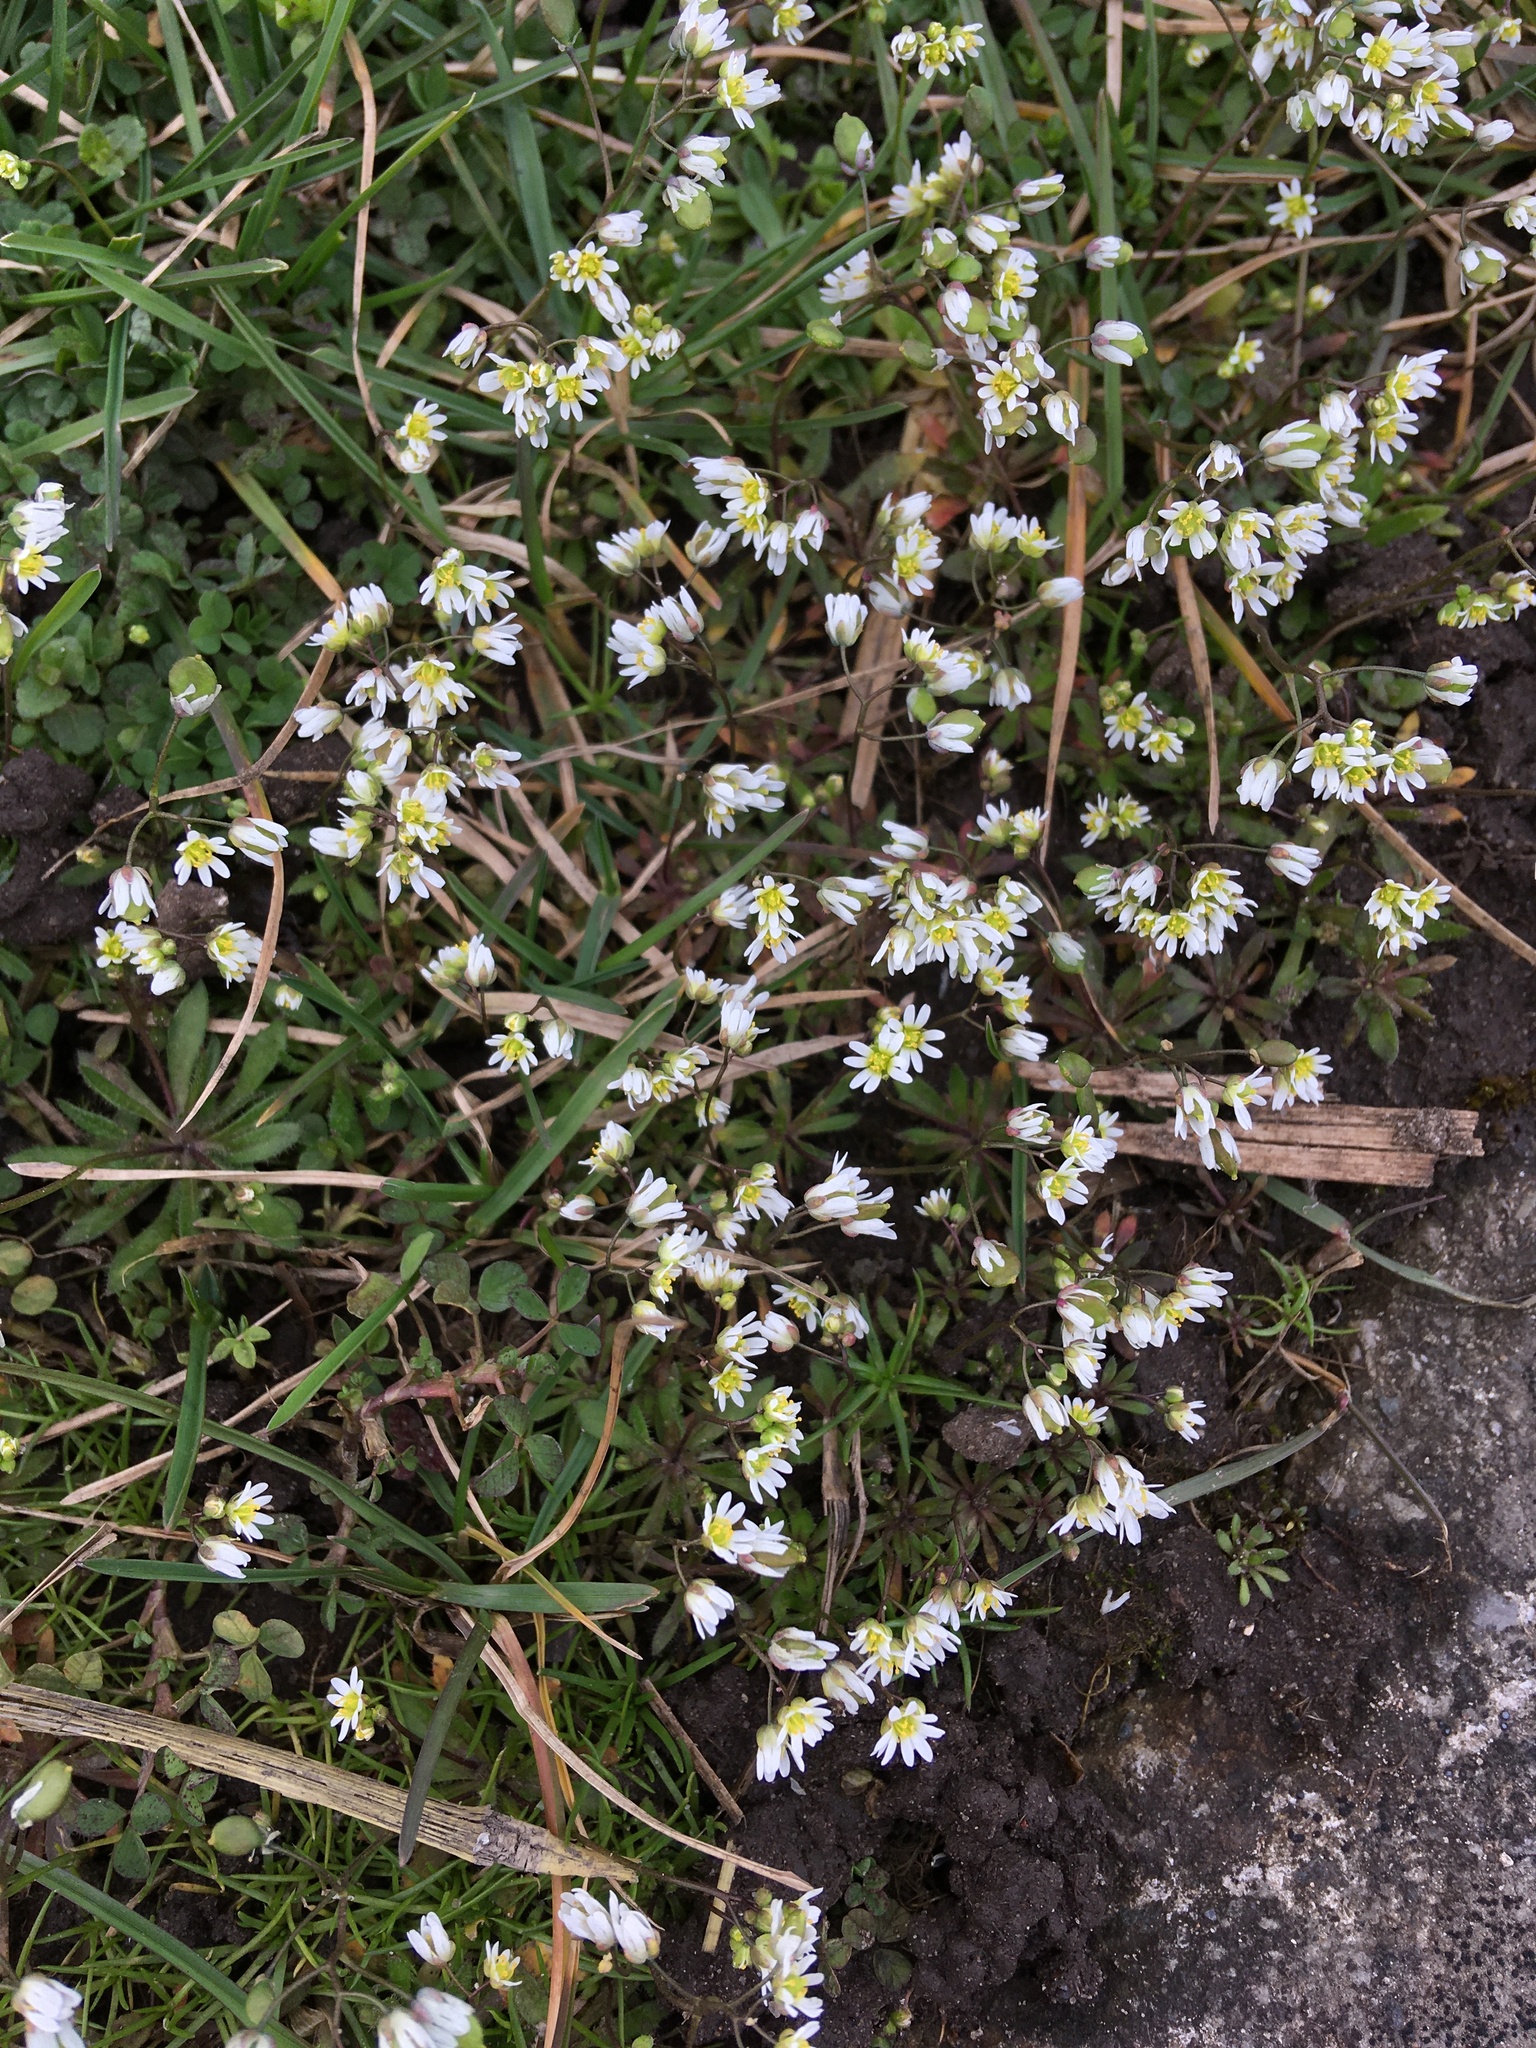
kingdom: Plantae
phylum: Tracheophyta
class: Magnoliopsida
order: Brassicales
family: Brassicaceae
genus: Draba
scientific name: Draba verna
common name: Spring draba
